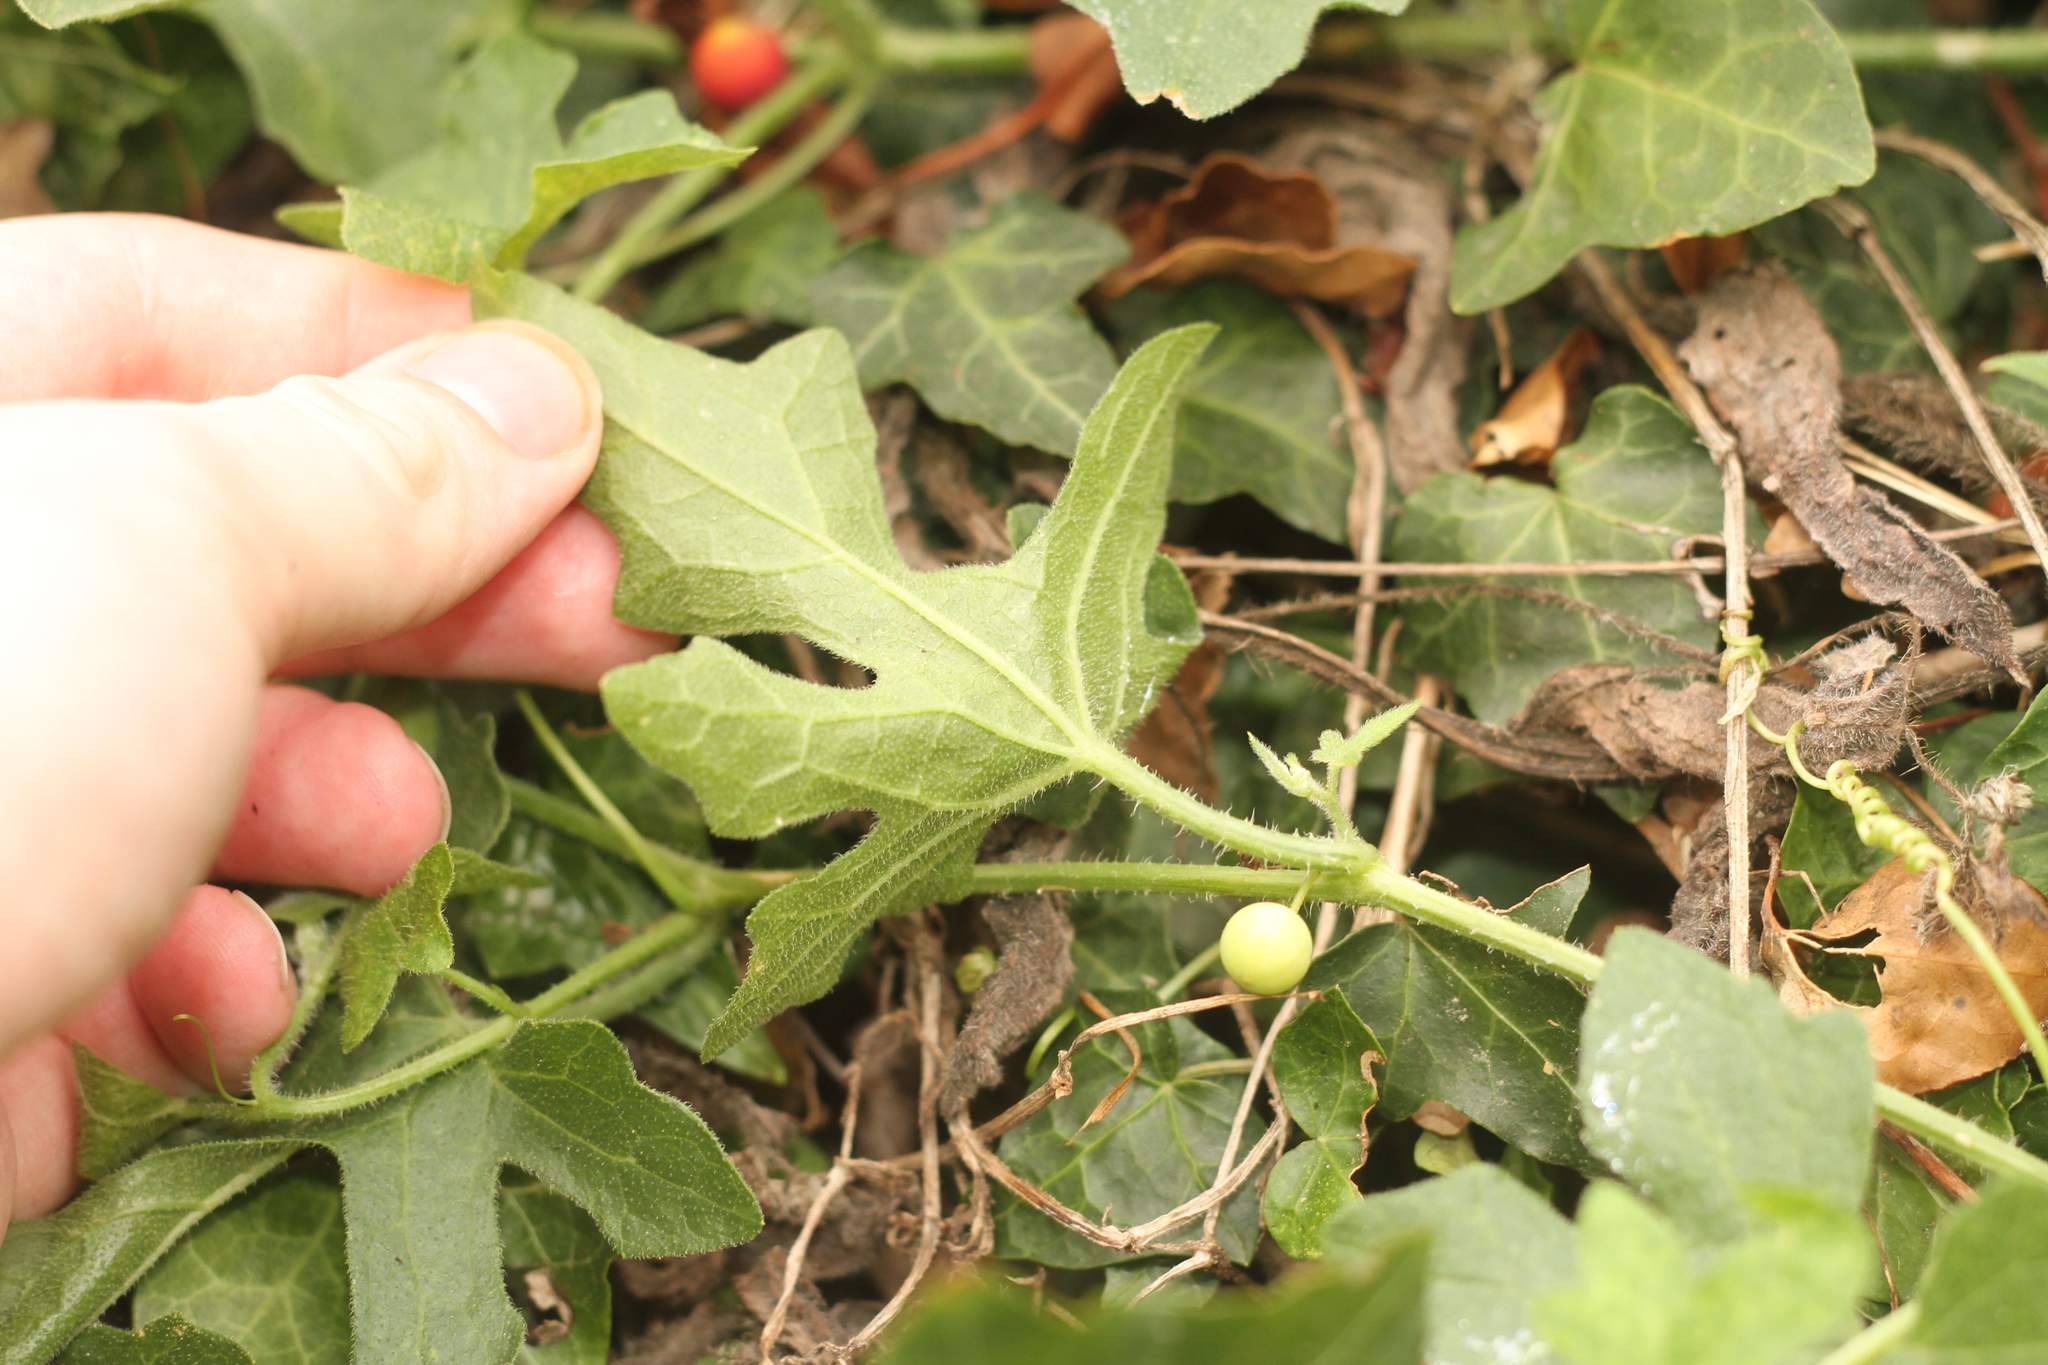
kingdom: Plantae
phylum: Tracheophyta
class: Magnoliopsida
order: Cucurbitales
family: Cucurbitaceae
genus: Bryonia
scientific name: Bryonia cretica
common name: Cretan bryony
